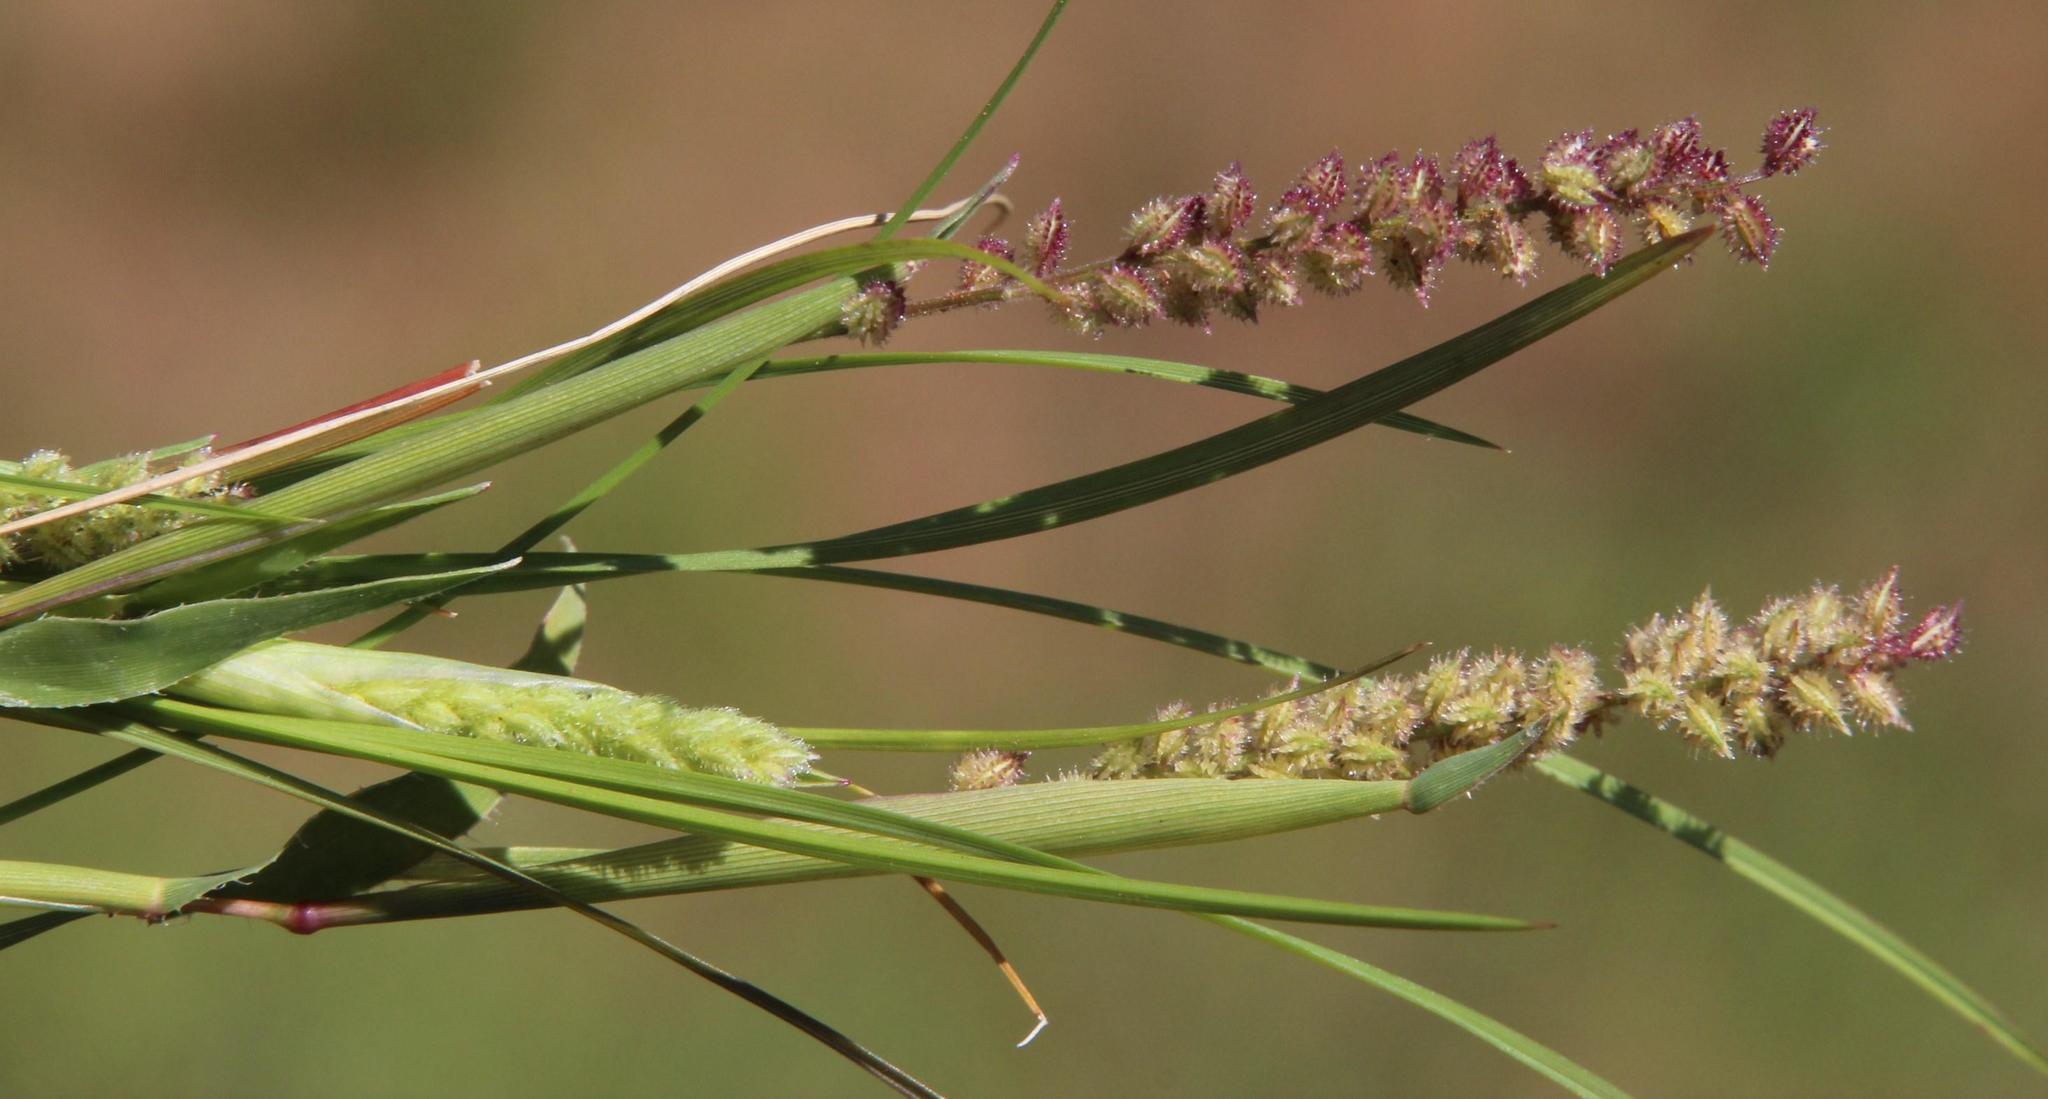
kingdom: Plantae
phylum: Tracheophyta
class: Liliopsida
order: Poales
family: Poaceae
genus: Tragus
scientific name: Tragus berteronianus
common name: African bur-grass
